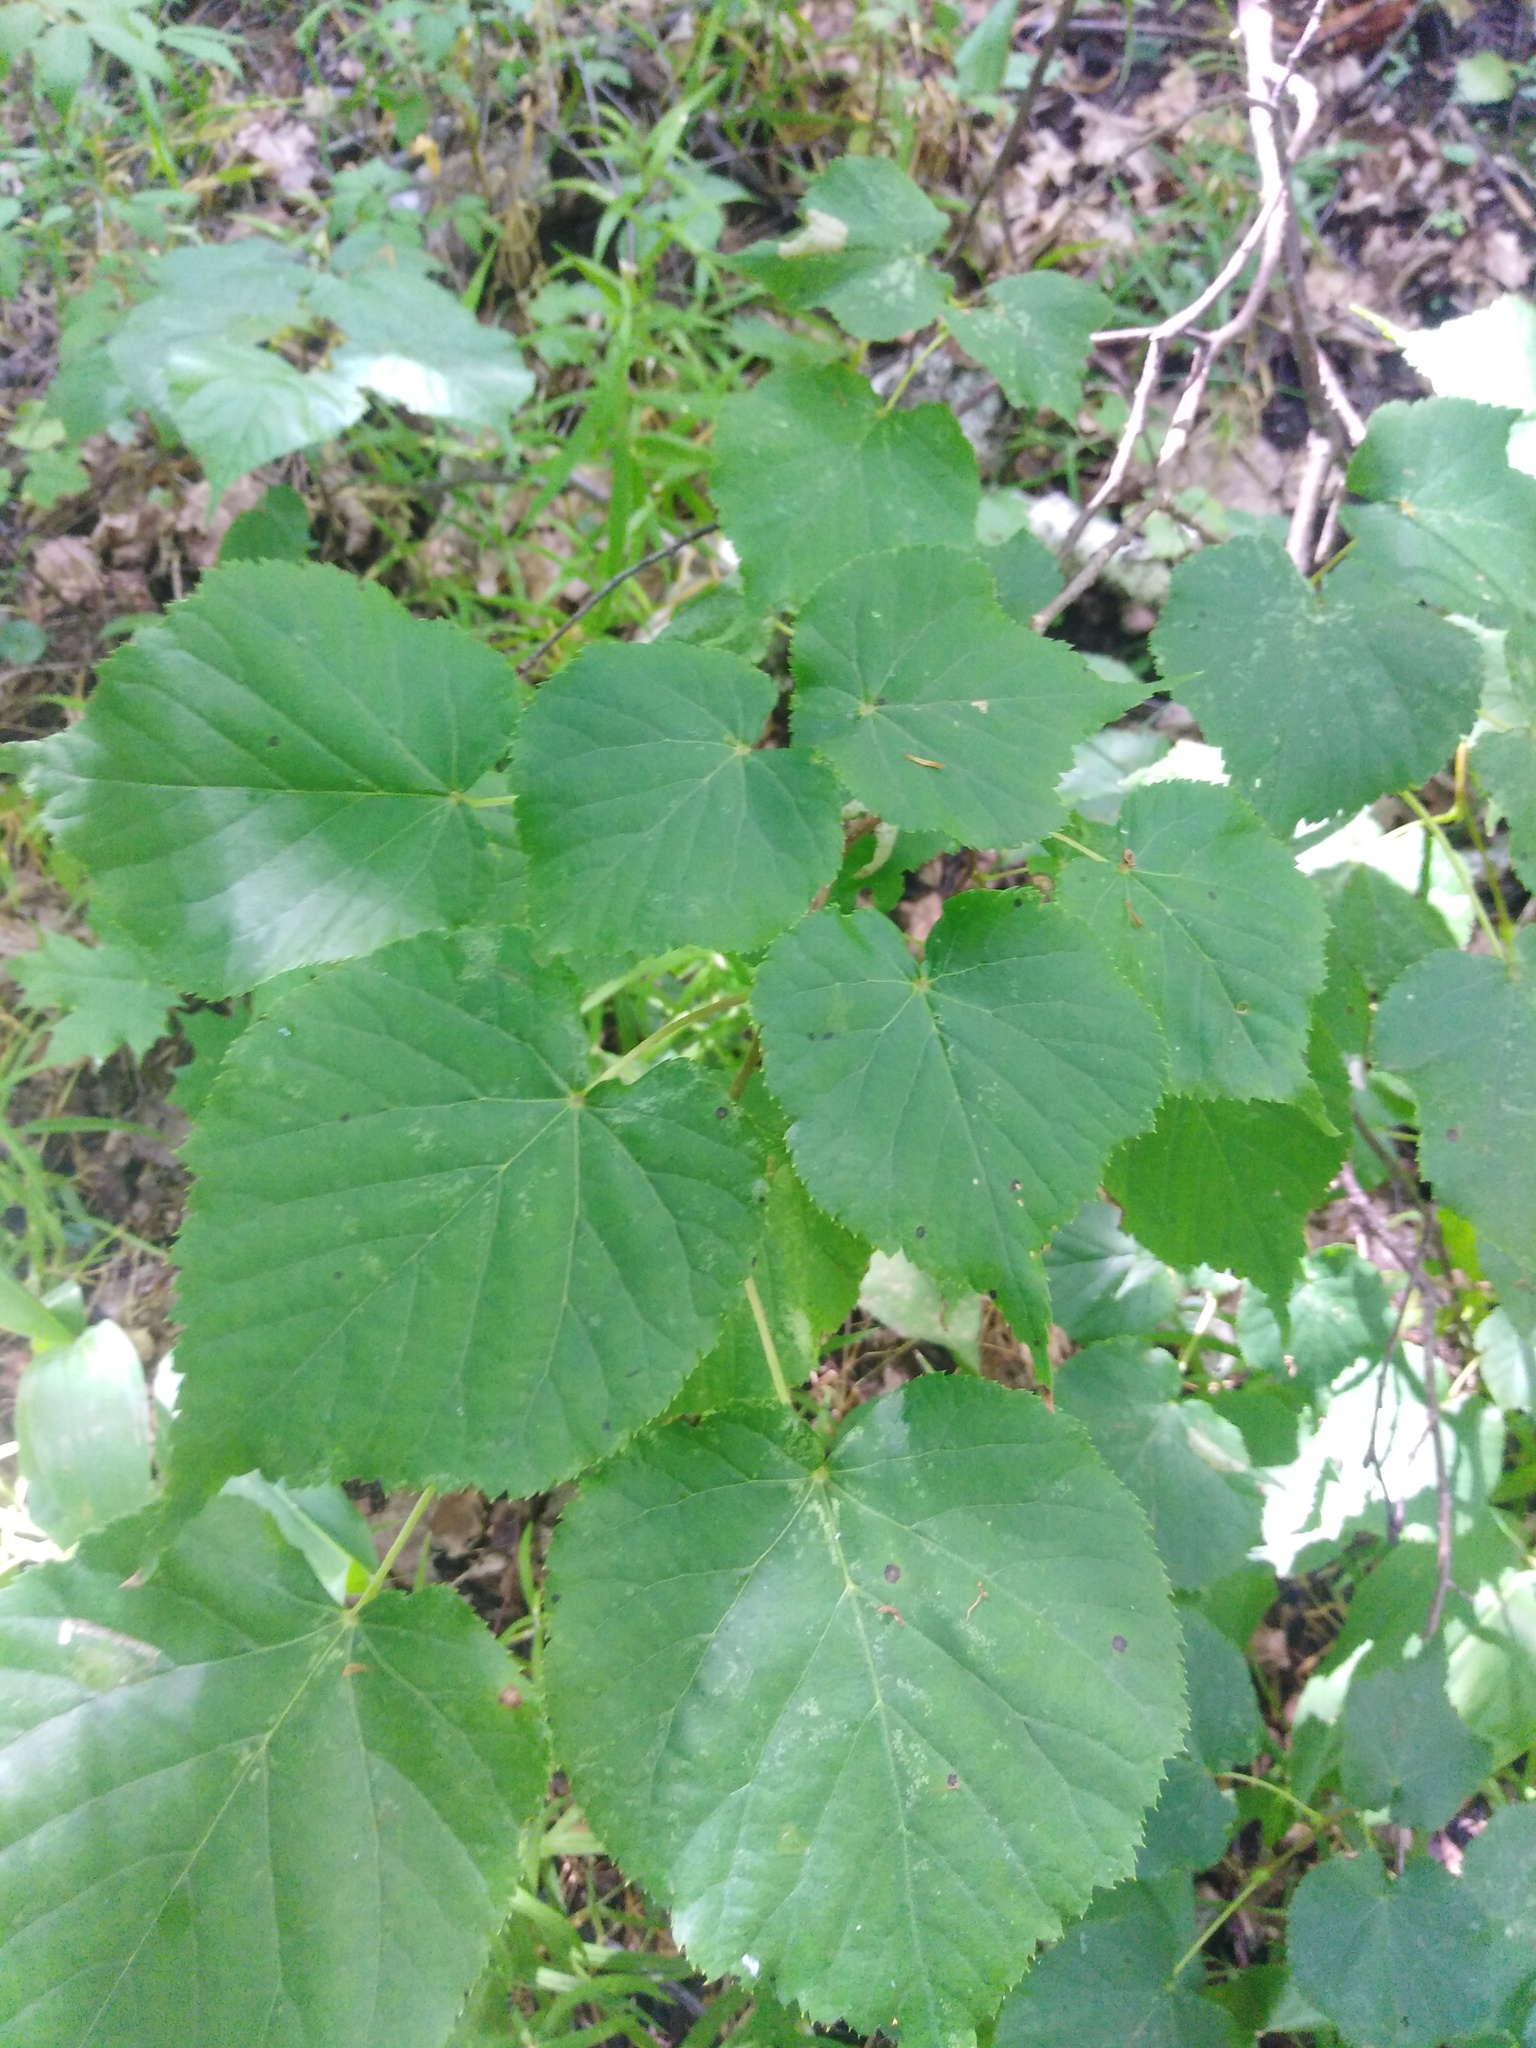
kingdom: Plantae
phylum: Tracheophyta
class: Magnoliopsida
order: Malvales
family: Malvaceae
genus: Tilia
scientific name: Tilia cordata
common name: Small-leaved lime
